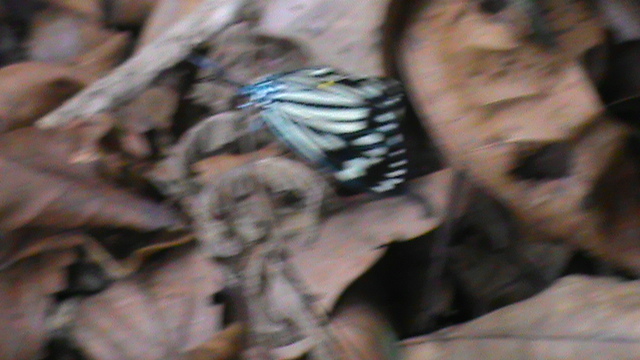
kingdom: Animalia
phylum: Arthropoda
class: Insecta
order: Lepidoptera
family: Zygaenidae
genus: Cyclosia
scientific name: Cyclosia
